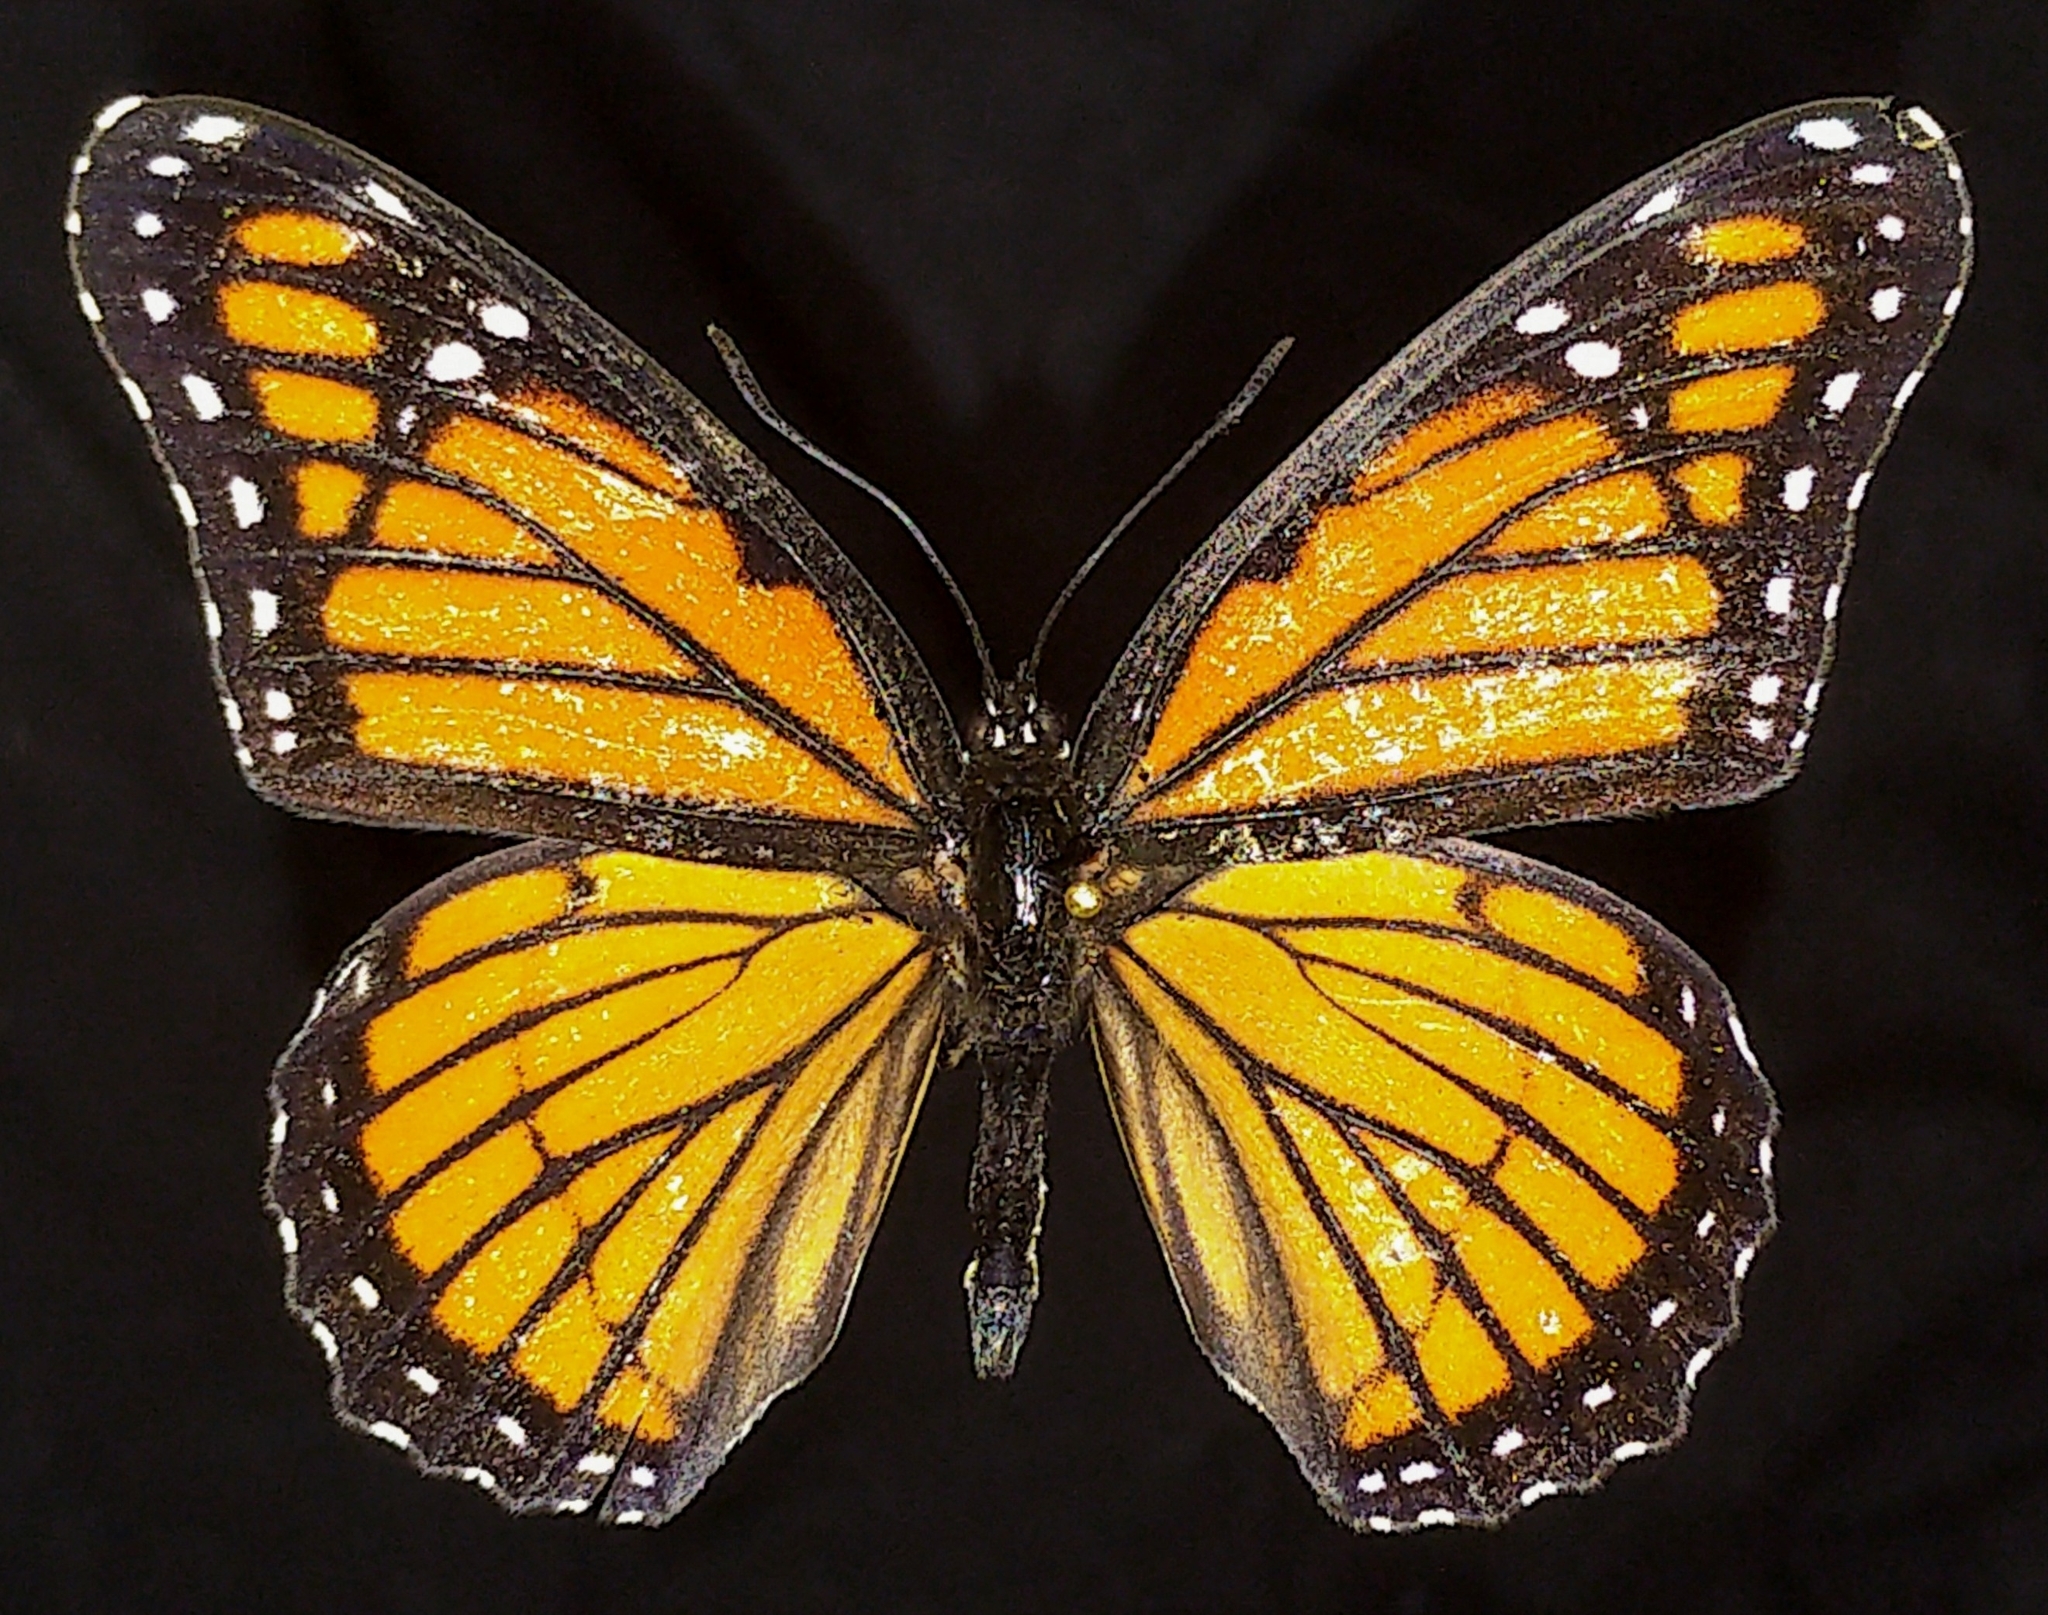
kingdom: Animalia
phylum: Arthropoda
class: Insecta
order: Lepidoptera
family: Nymphalidae
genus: Limenitis
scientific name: Limenitis archippus
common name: Viceroy
